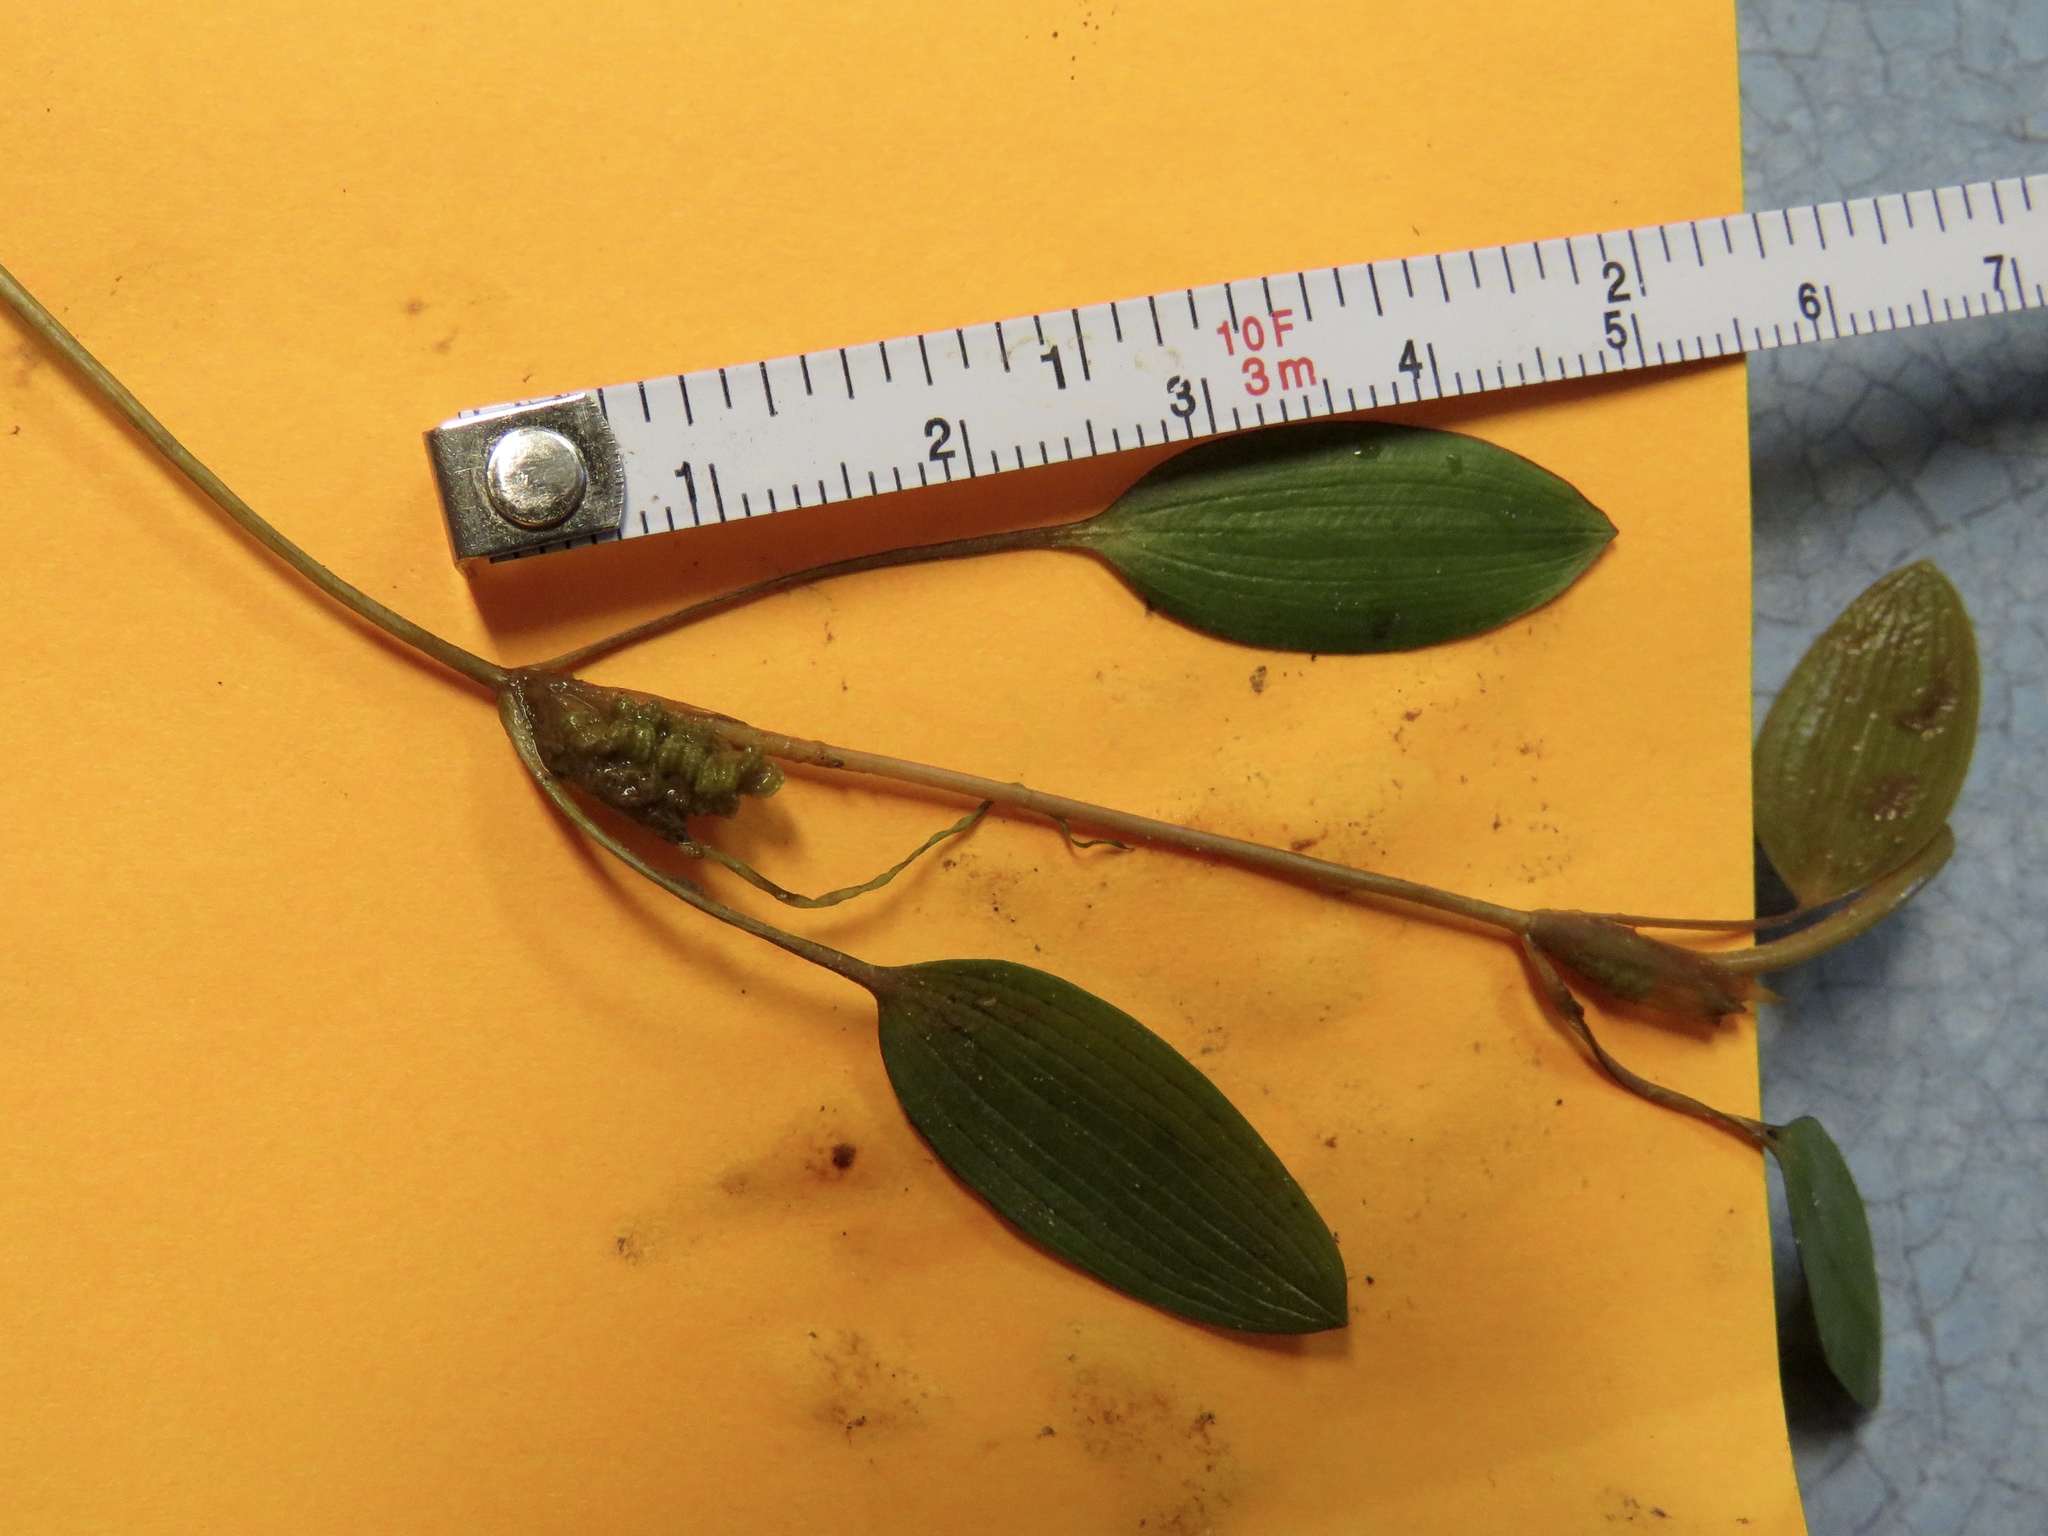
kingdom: Plantae
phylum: Tracheophyta
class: Liliopsida
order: Alismatales
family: Potamogetonaceae
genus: Potamogeton
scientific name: Potamogeton diversifolius
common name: Water-thread pondweed
